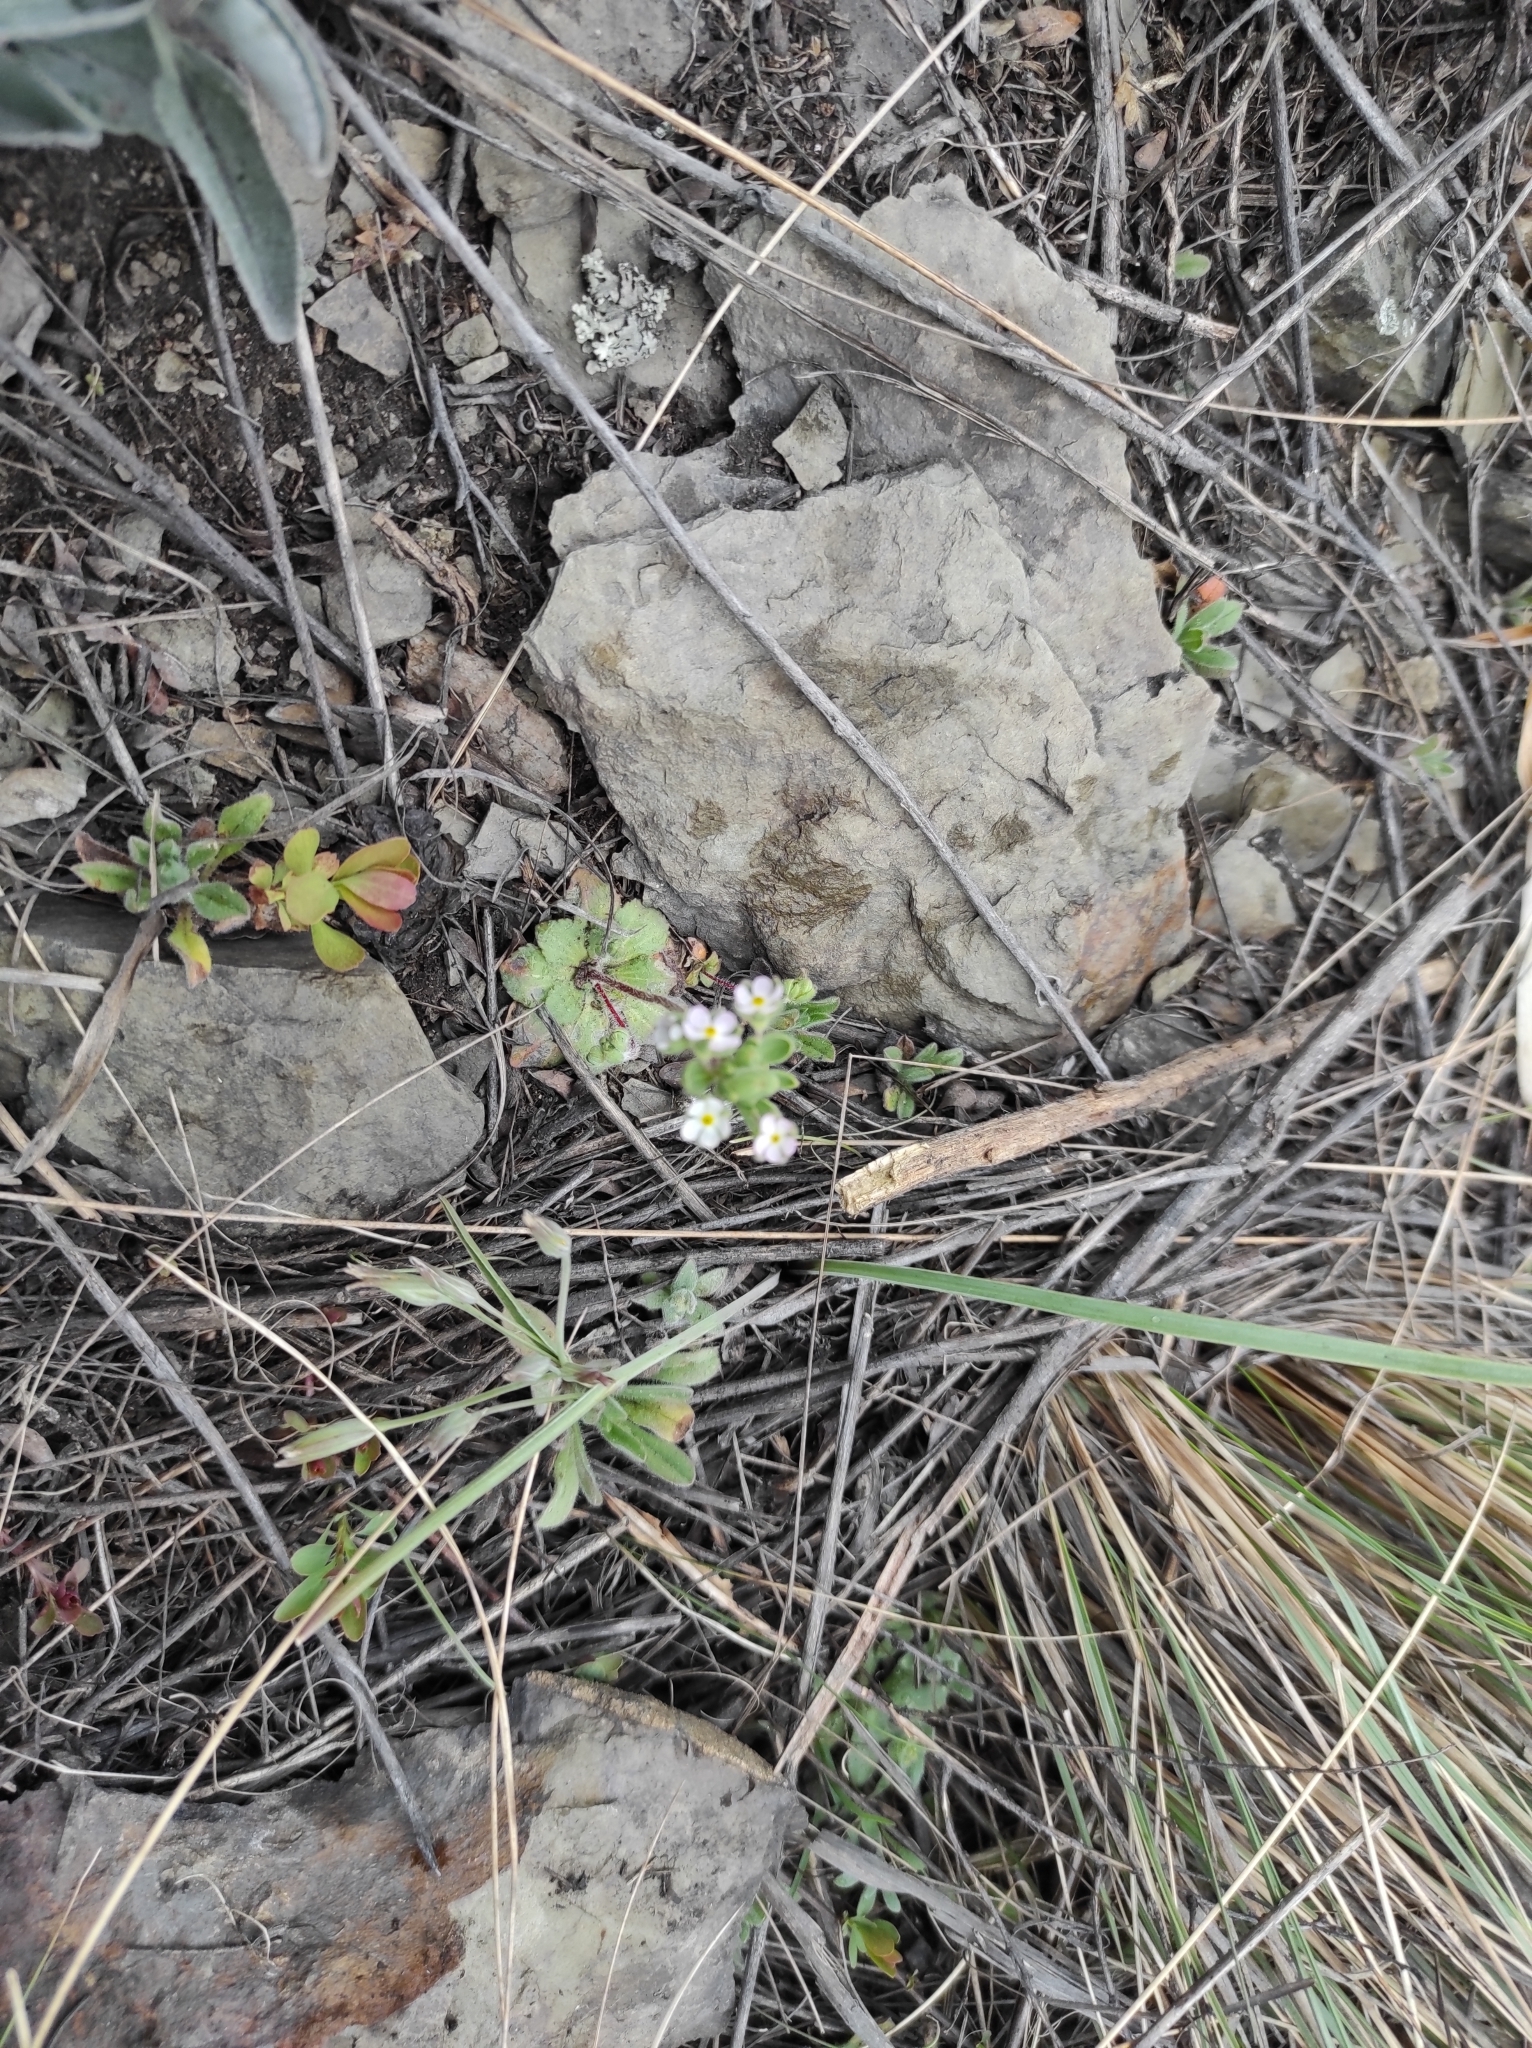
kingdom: Plantae
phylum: Tracheophyta
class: Magnoliopsida
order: Ericales
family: Primulaceae
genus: Androsace
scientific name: Androsace maxima
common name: Annual androsace
